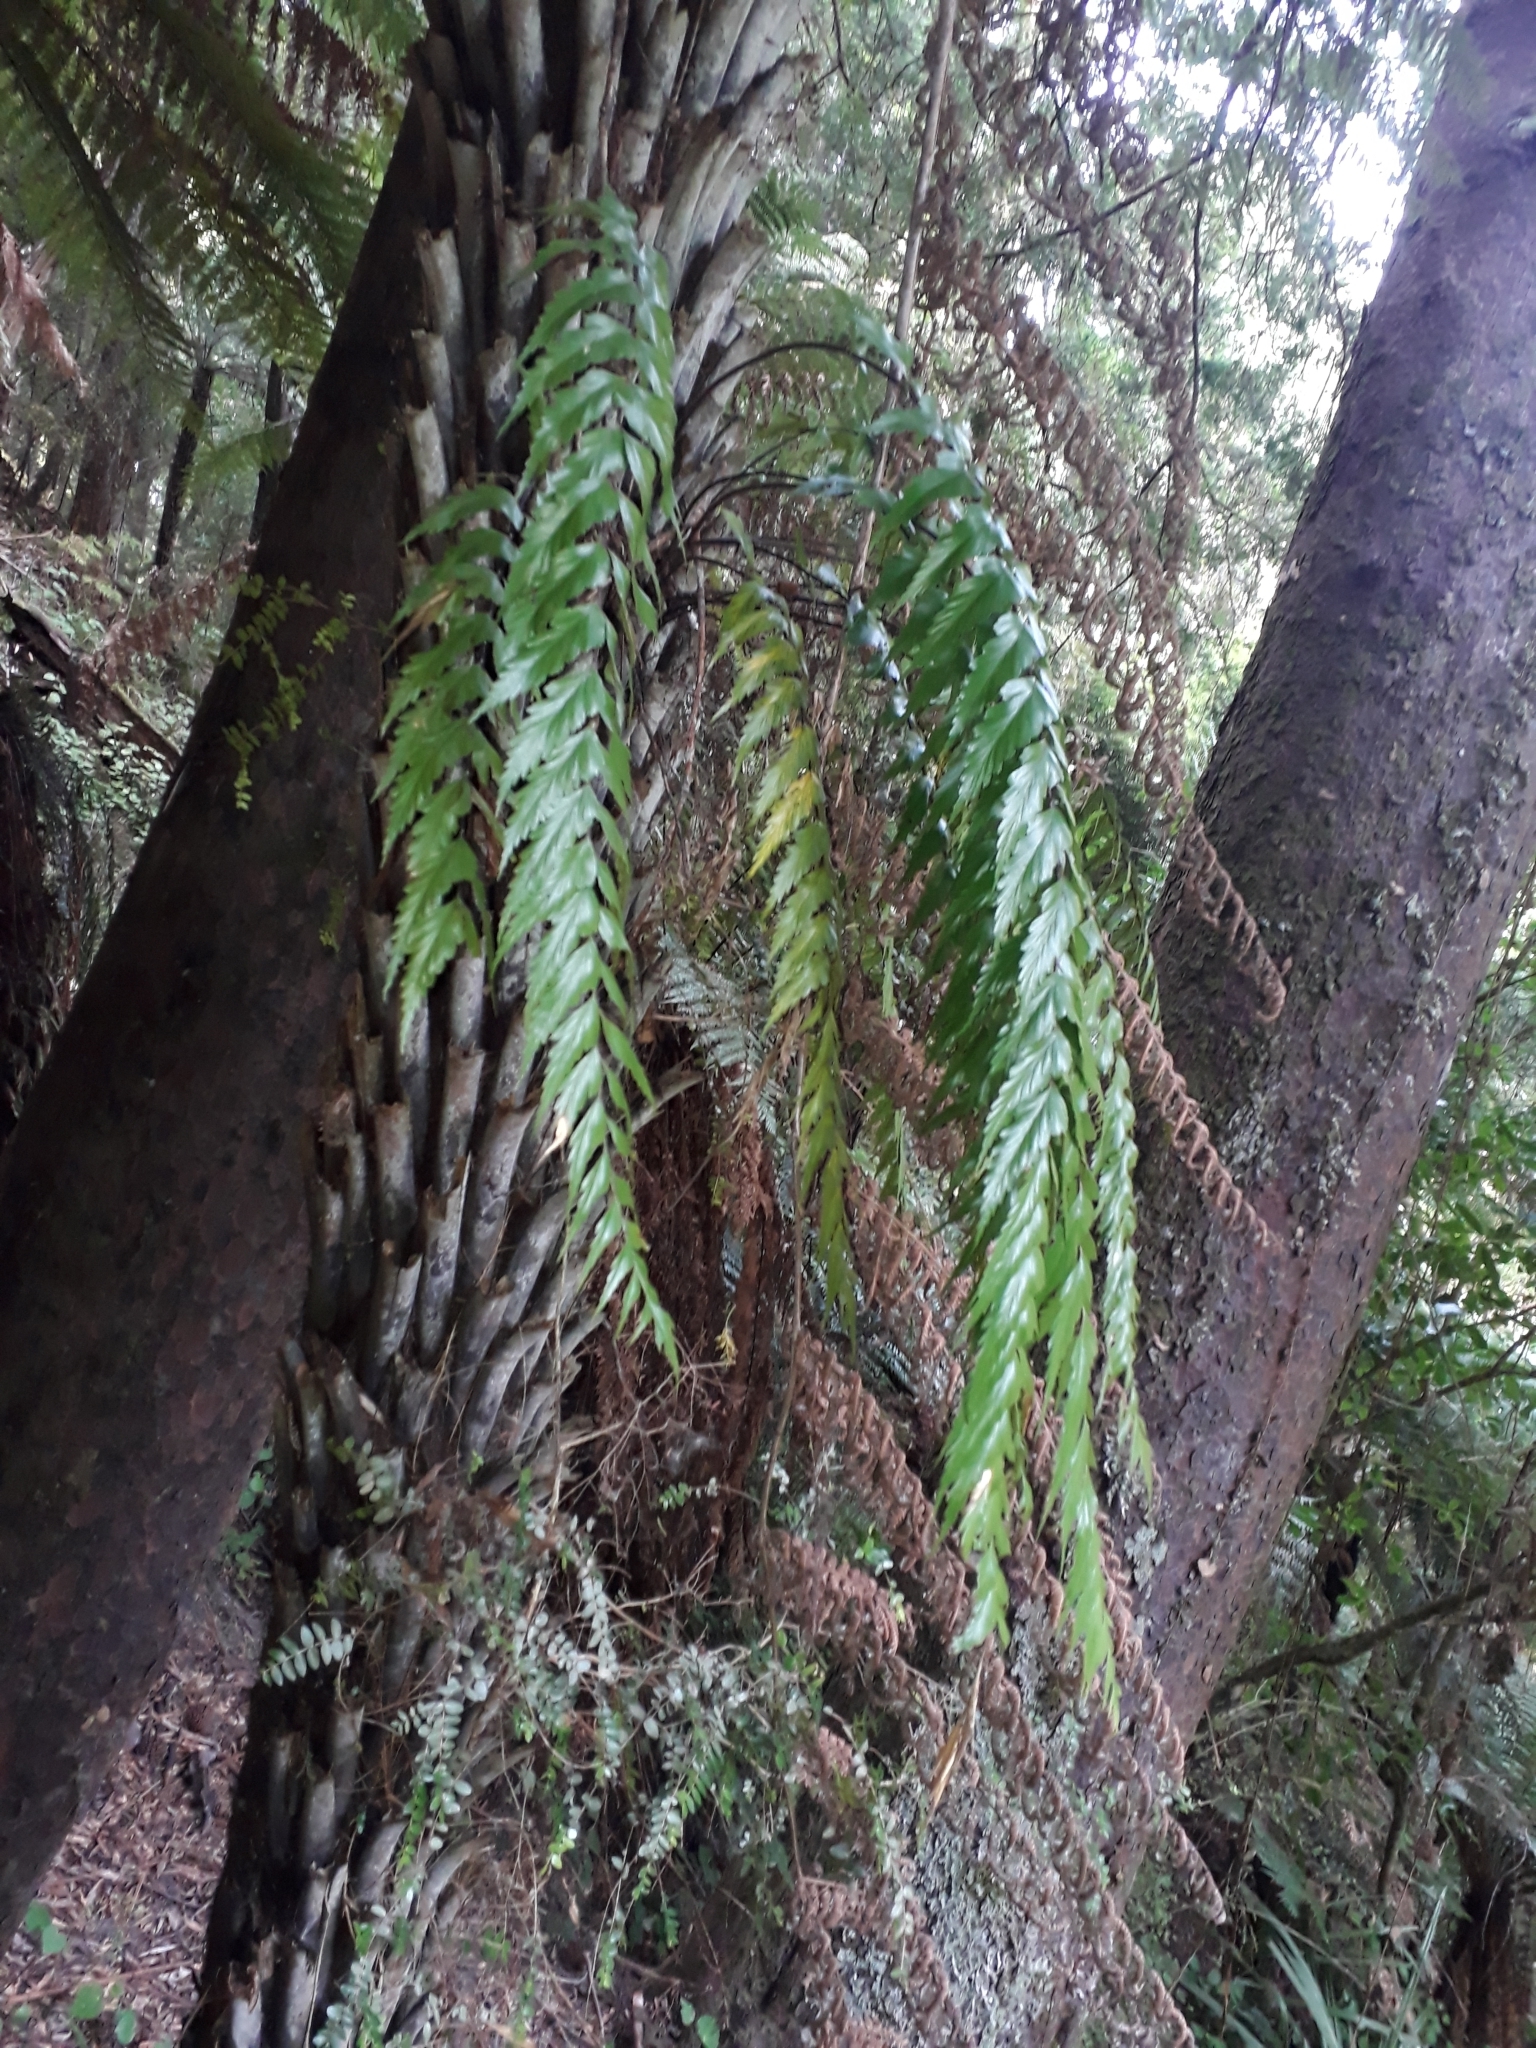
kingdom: Plantae
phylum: Tracheophyta
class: Polypodiopsida
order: Polypodiales
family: Aspleniaceae
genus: Asplenium
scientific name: Asplenium polyodon
